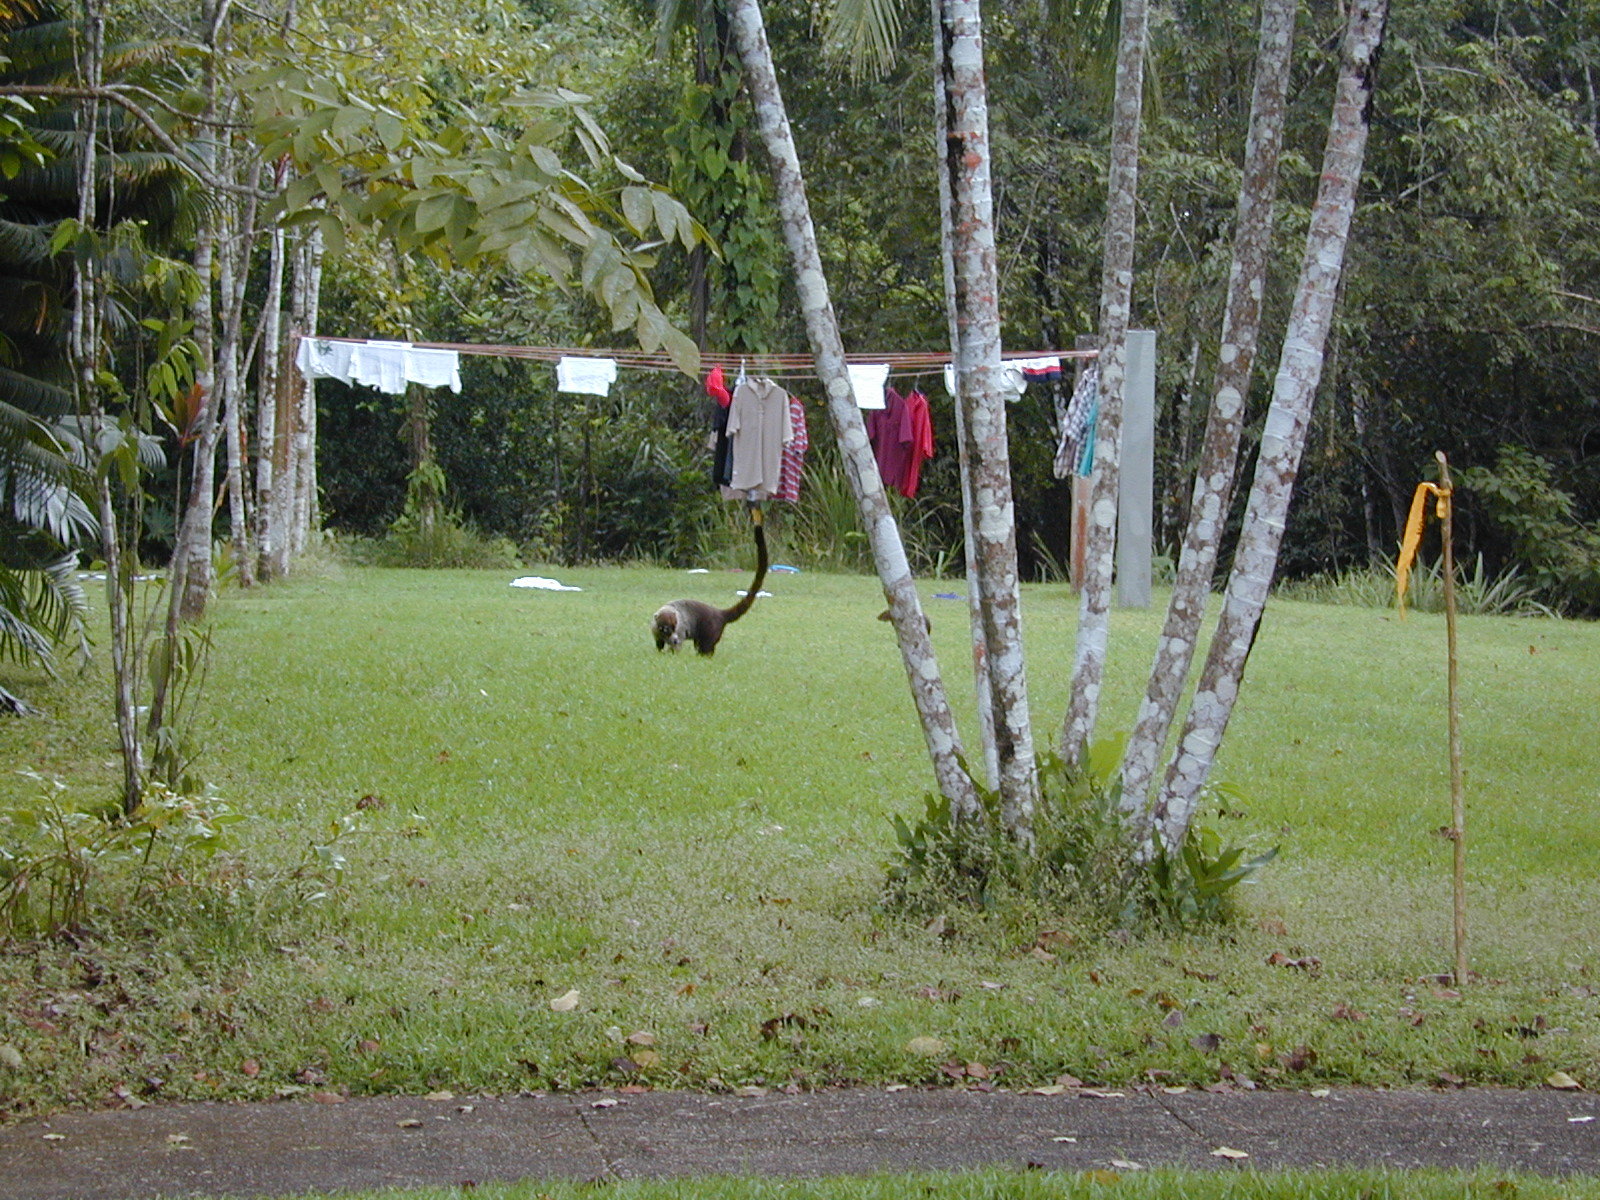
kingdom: Animalia
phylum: Chordata
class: Mammalia
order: Carnivora
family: Procyonidae
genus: Nasua
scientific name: Nasua narica
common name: White-nosed coati
